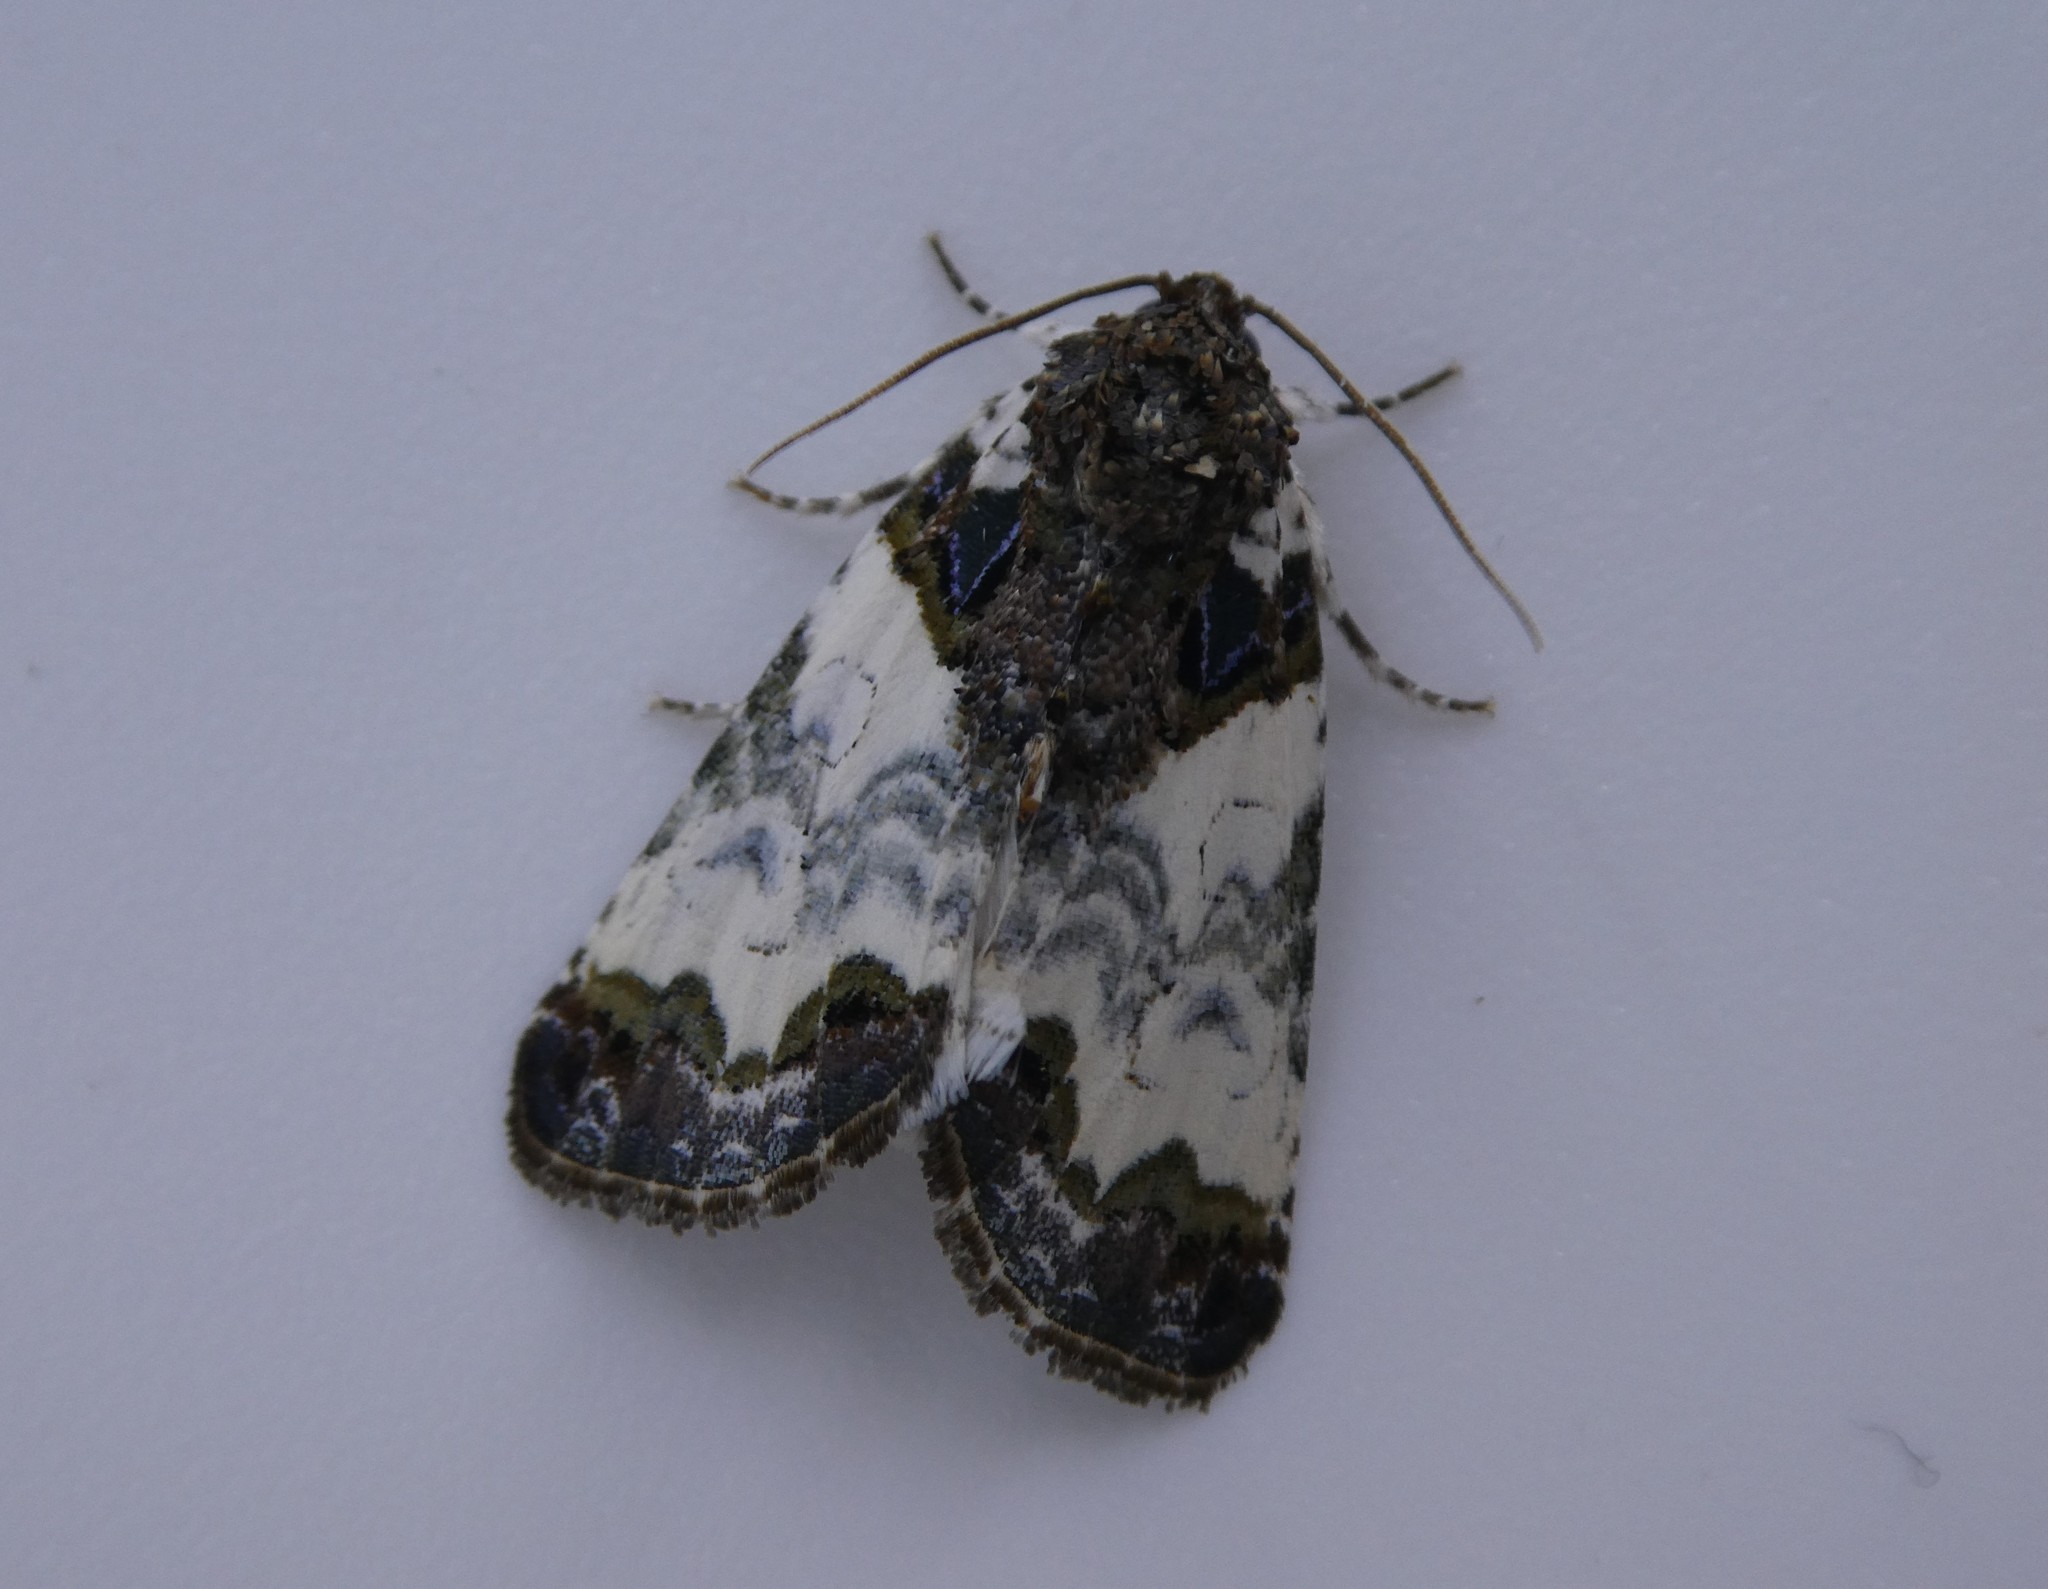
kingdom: Animalia
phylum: Arthropoda
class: Insecta
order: Lepidoptera
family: Noctuidae
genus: Cerma
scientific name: Cerma cerintha
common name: Tufted bird-dropping moth
